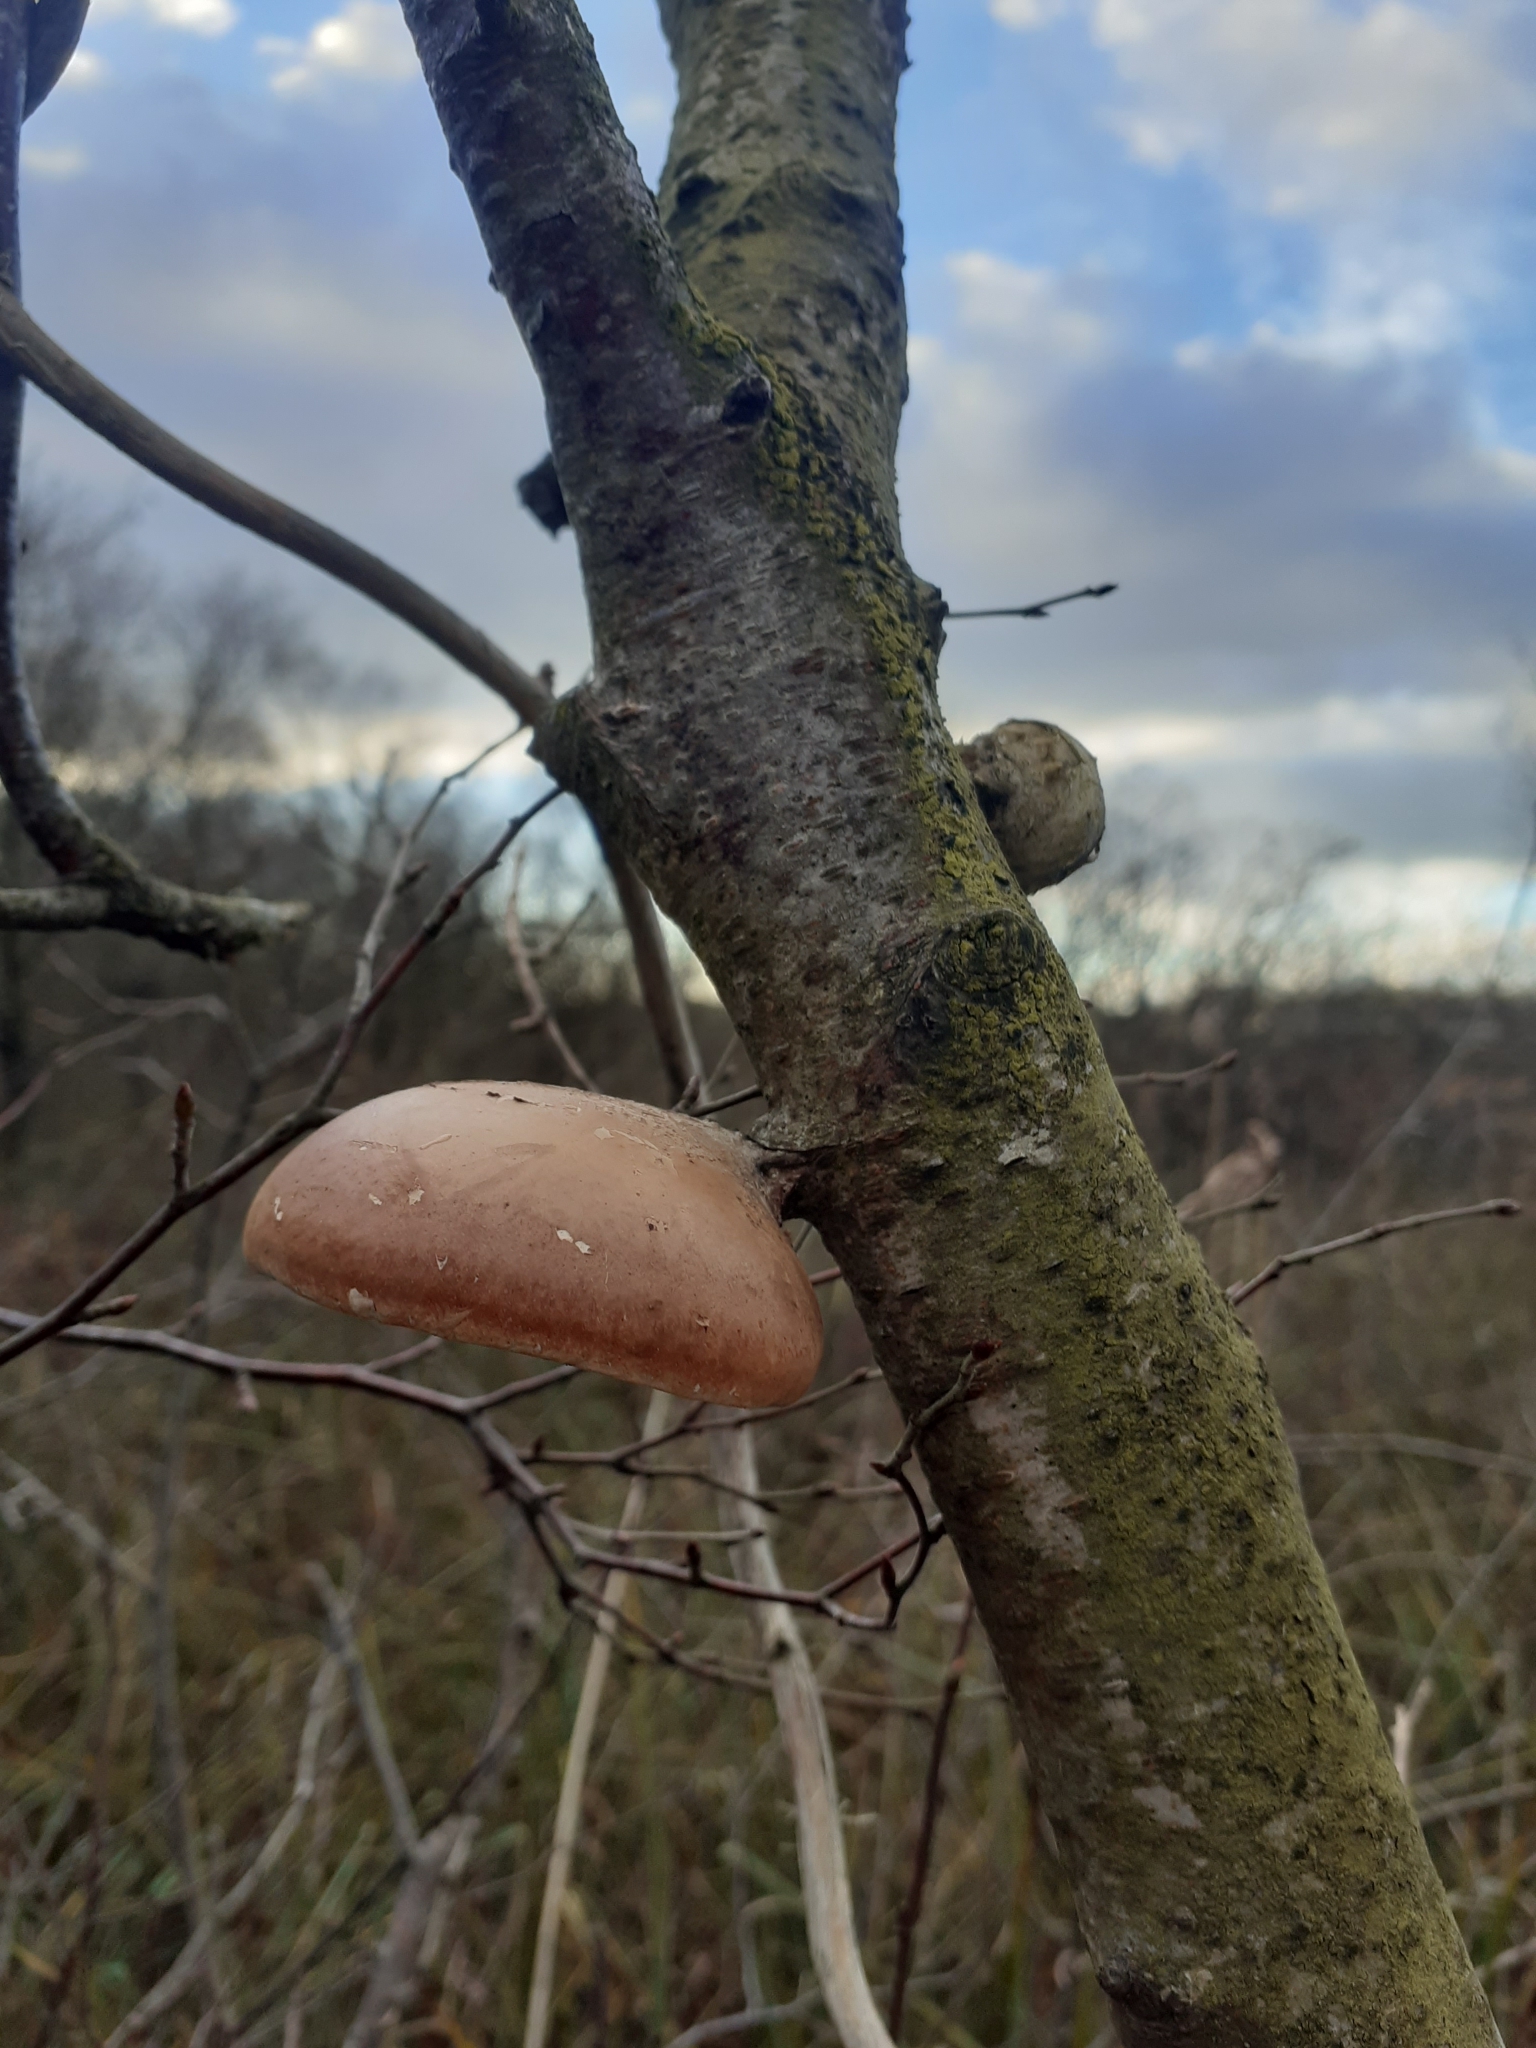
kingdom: Fungi
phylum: Basidiomycota
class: Agaricomycetes
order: Polyporales
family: Fomitopsidaceae
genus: Fomitopsis
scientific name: Fomitopsis betulina
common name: Birch polypore
